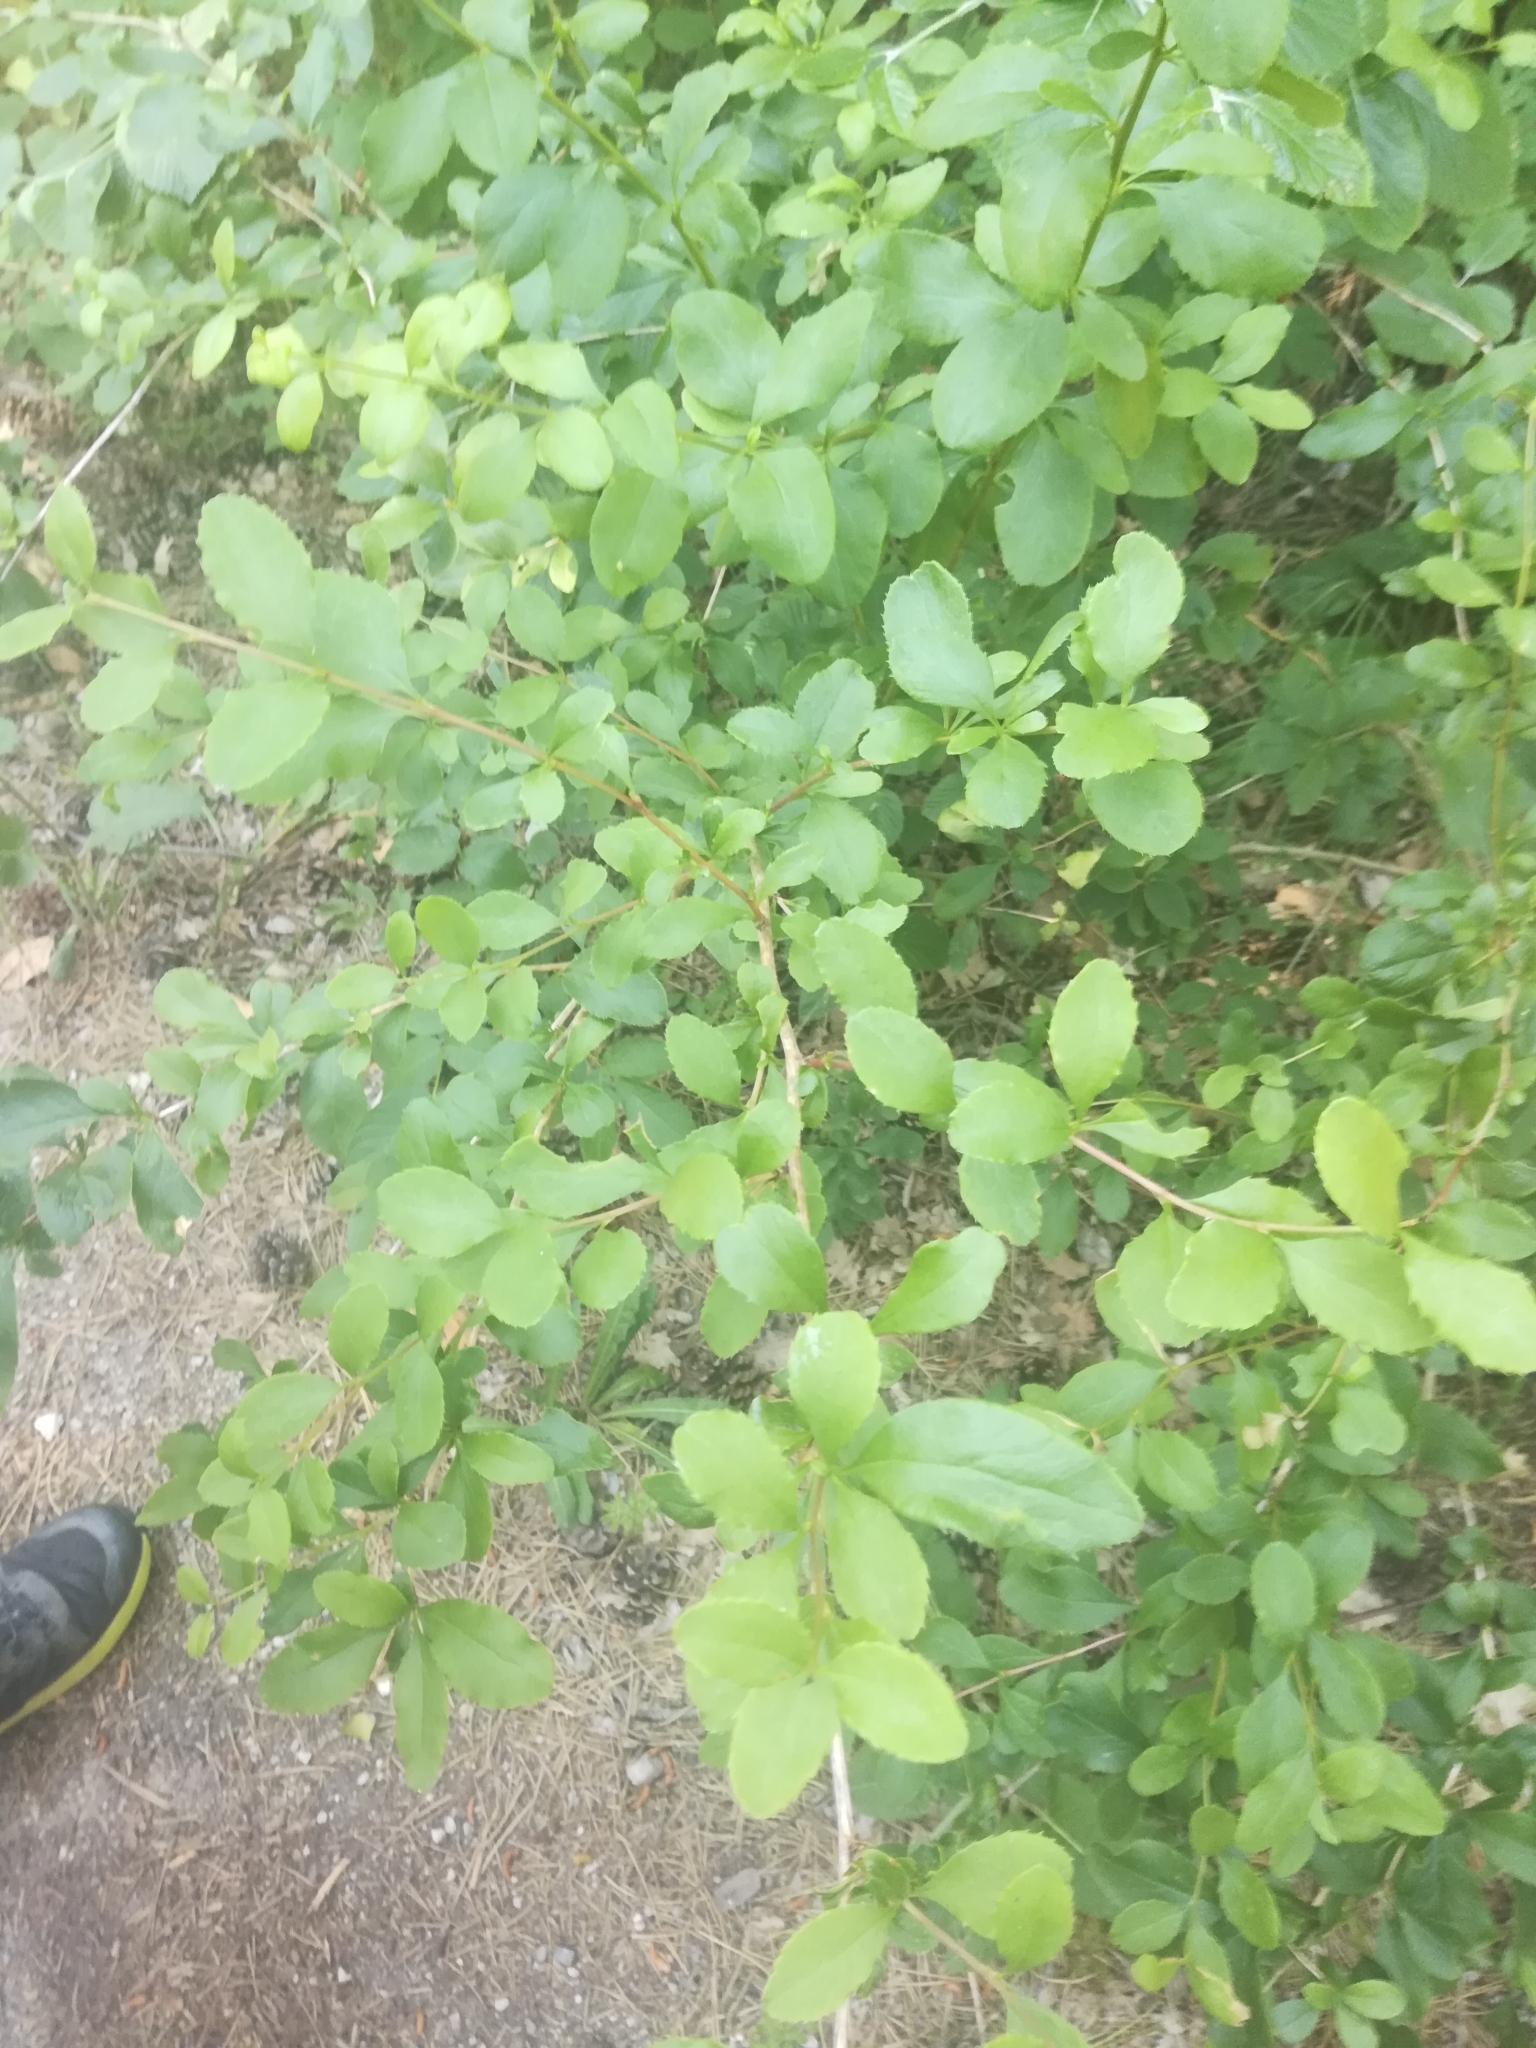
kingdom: Plantae
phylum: Tracheophyta
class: Magnoliopsida
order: Ranunculales
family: Berberidaceae
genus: Berberis
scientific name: Berberis vulgaris
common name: Barberry
